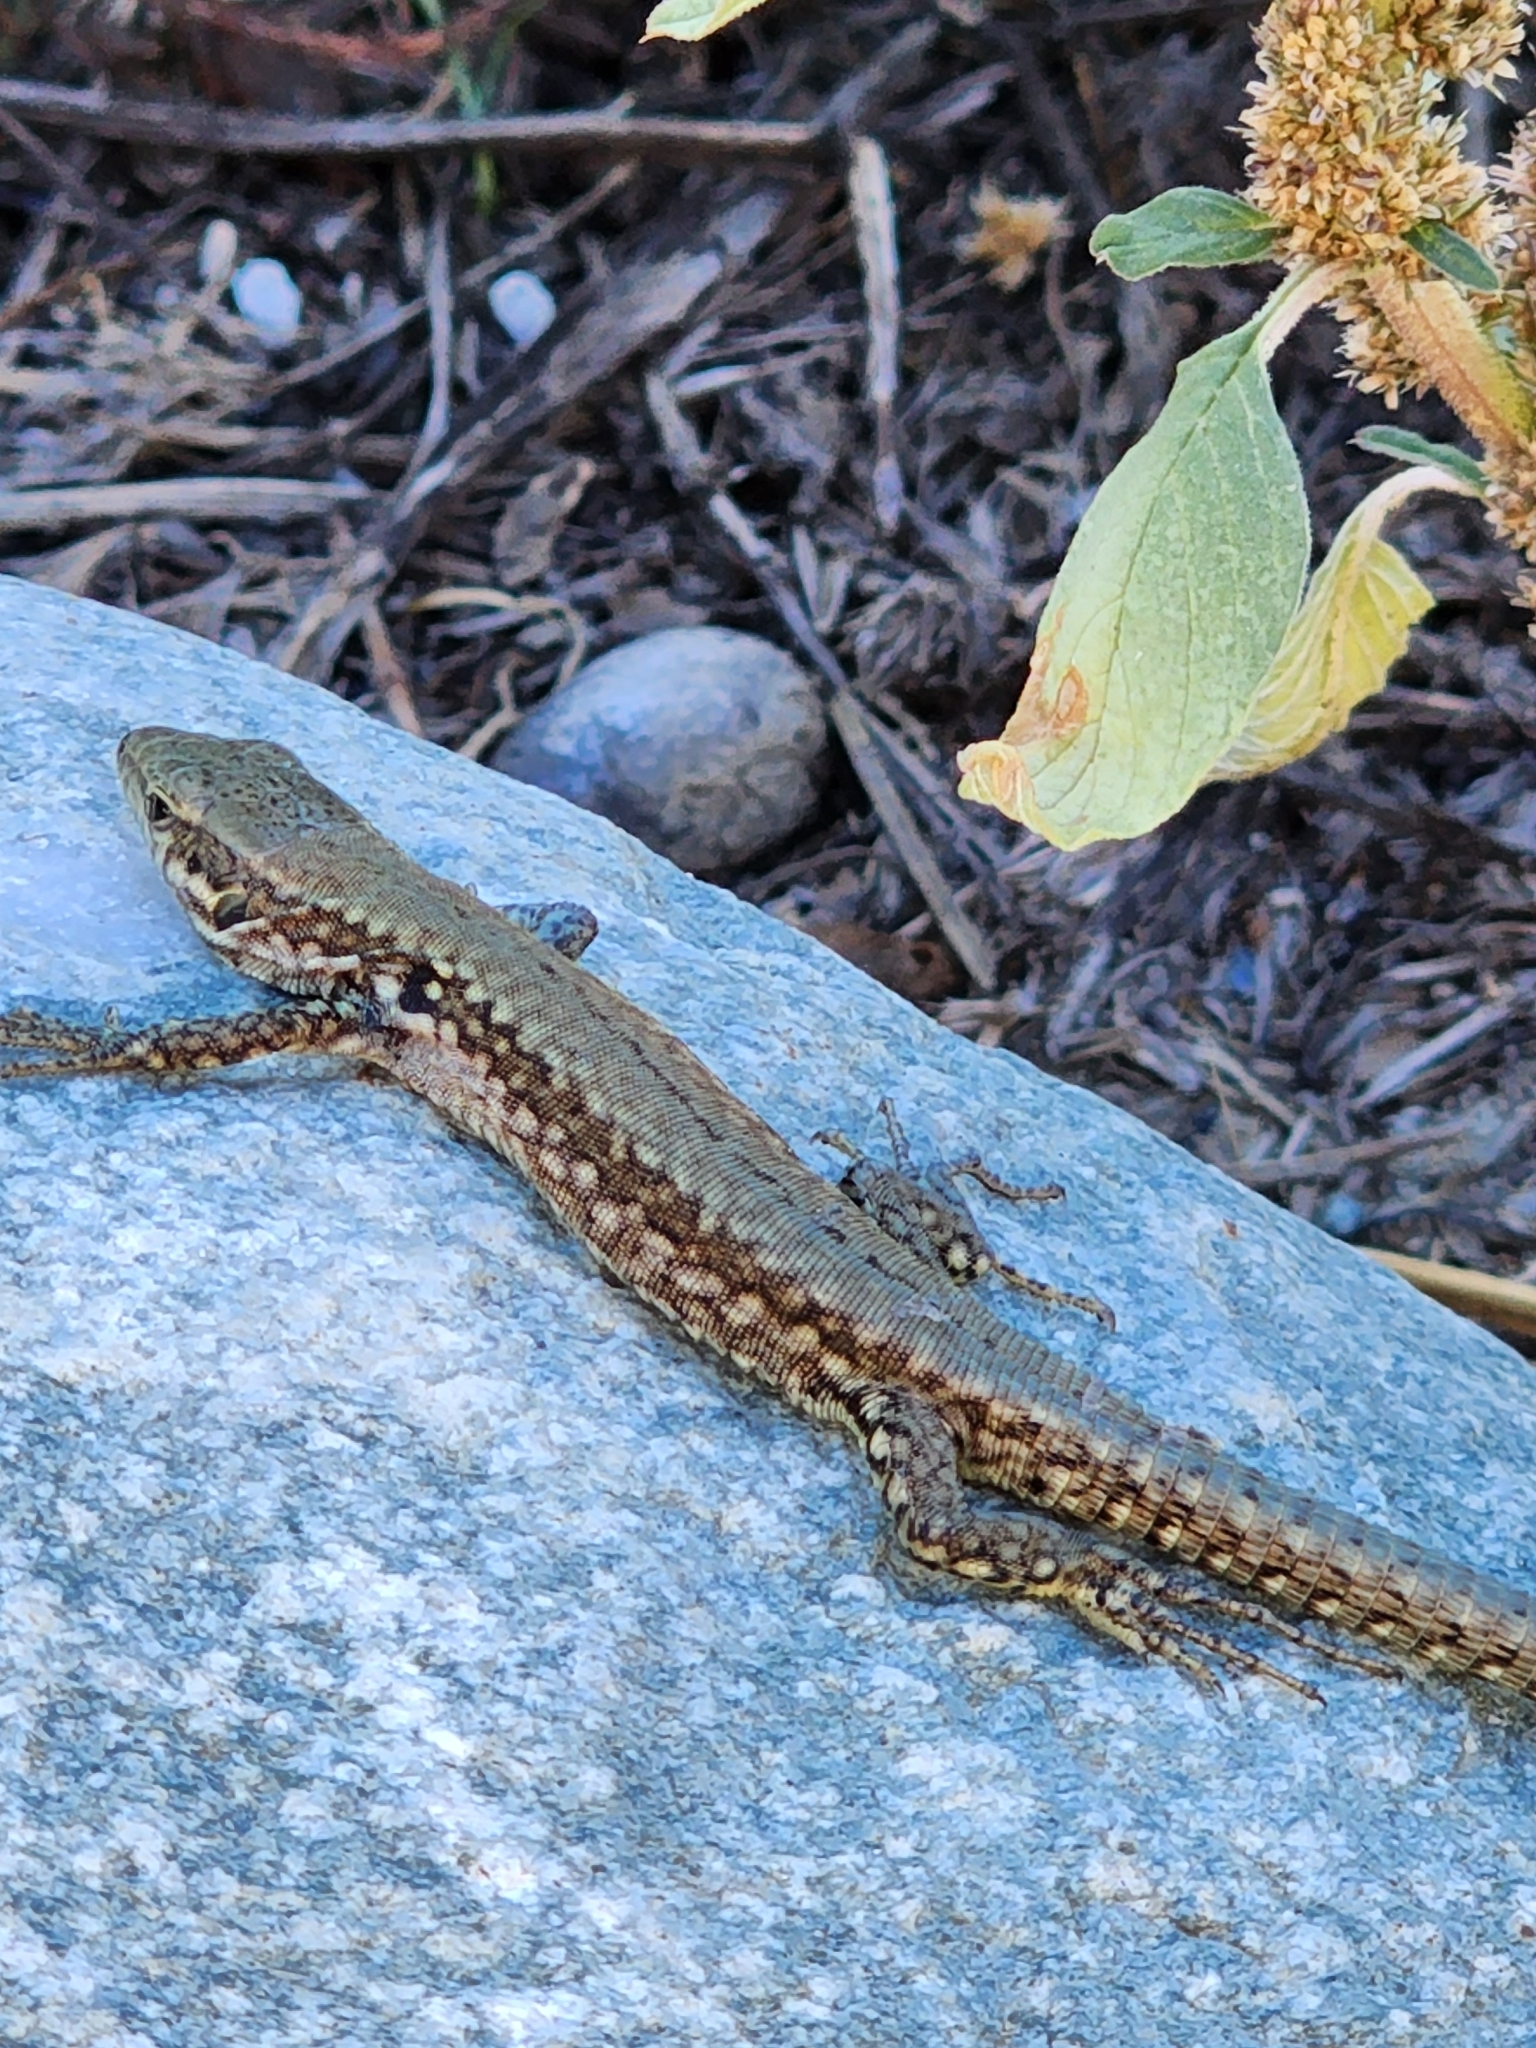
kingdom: Animalia
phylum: Chordata
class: Squamata
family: Lacertidae
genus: Podarcis
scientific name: Podarcis muralis
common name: Common wall lizard
